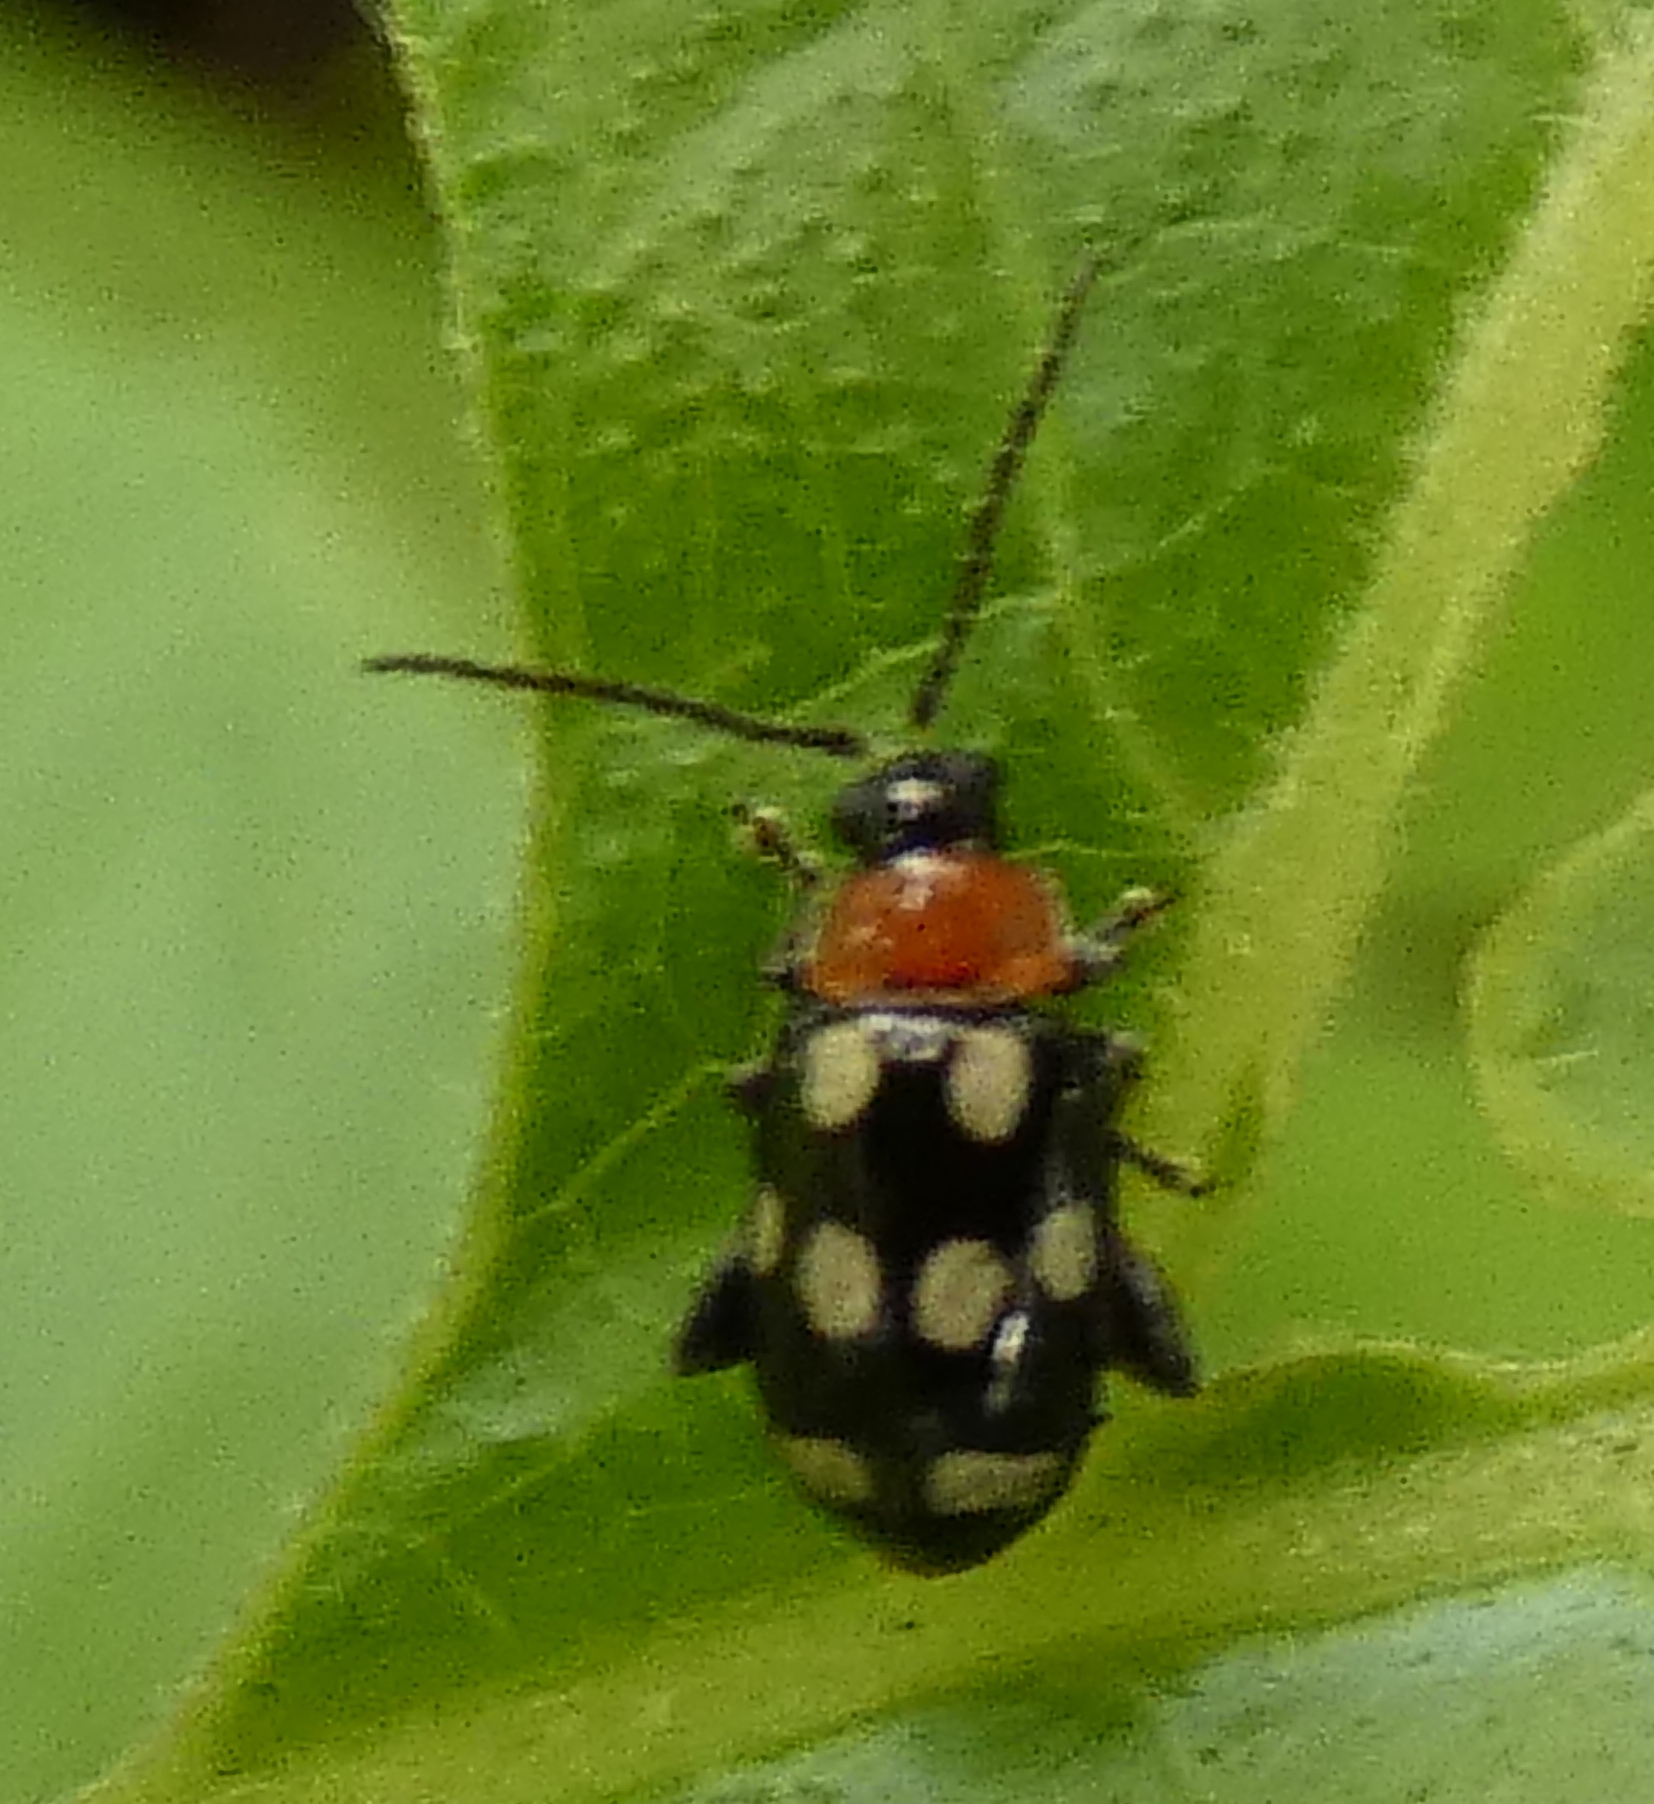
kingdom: Animalia
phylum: Arthropoda
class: Insecta
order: Coleoptera
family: Chrysomelidae
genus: Phenrica
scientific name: Phenrica austriaca
